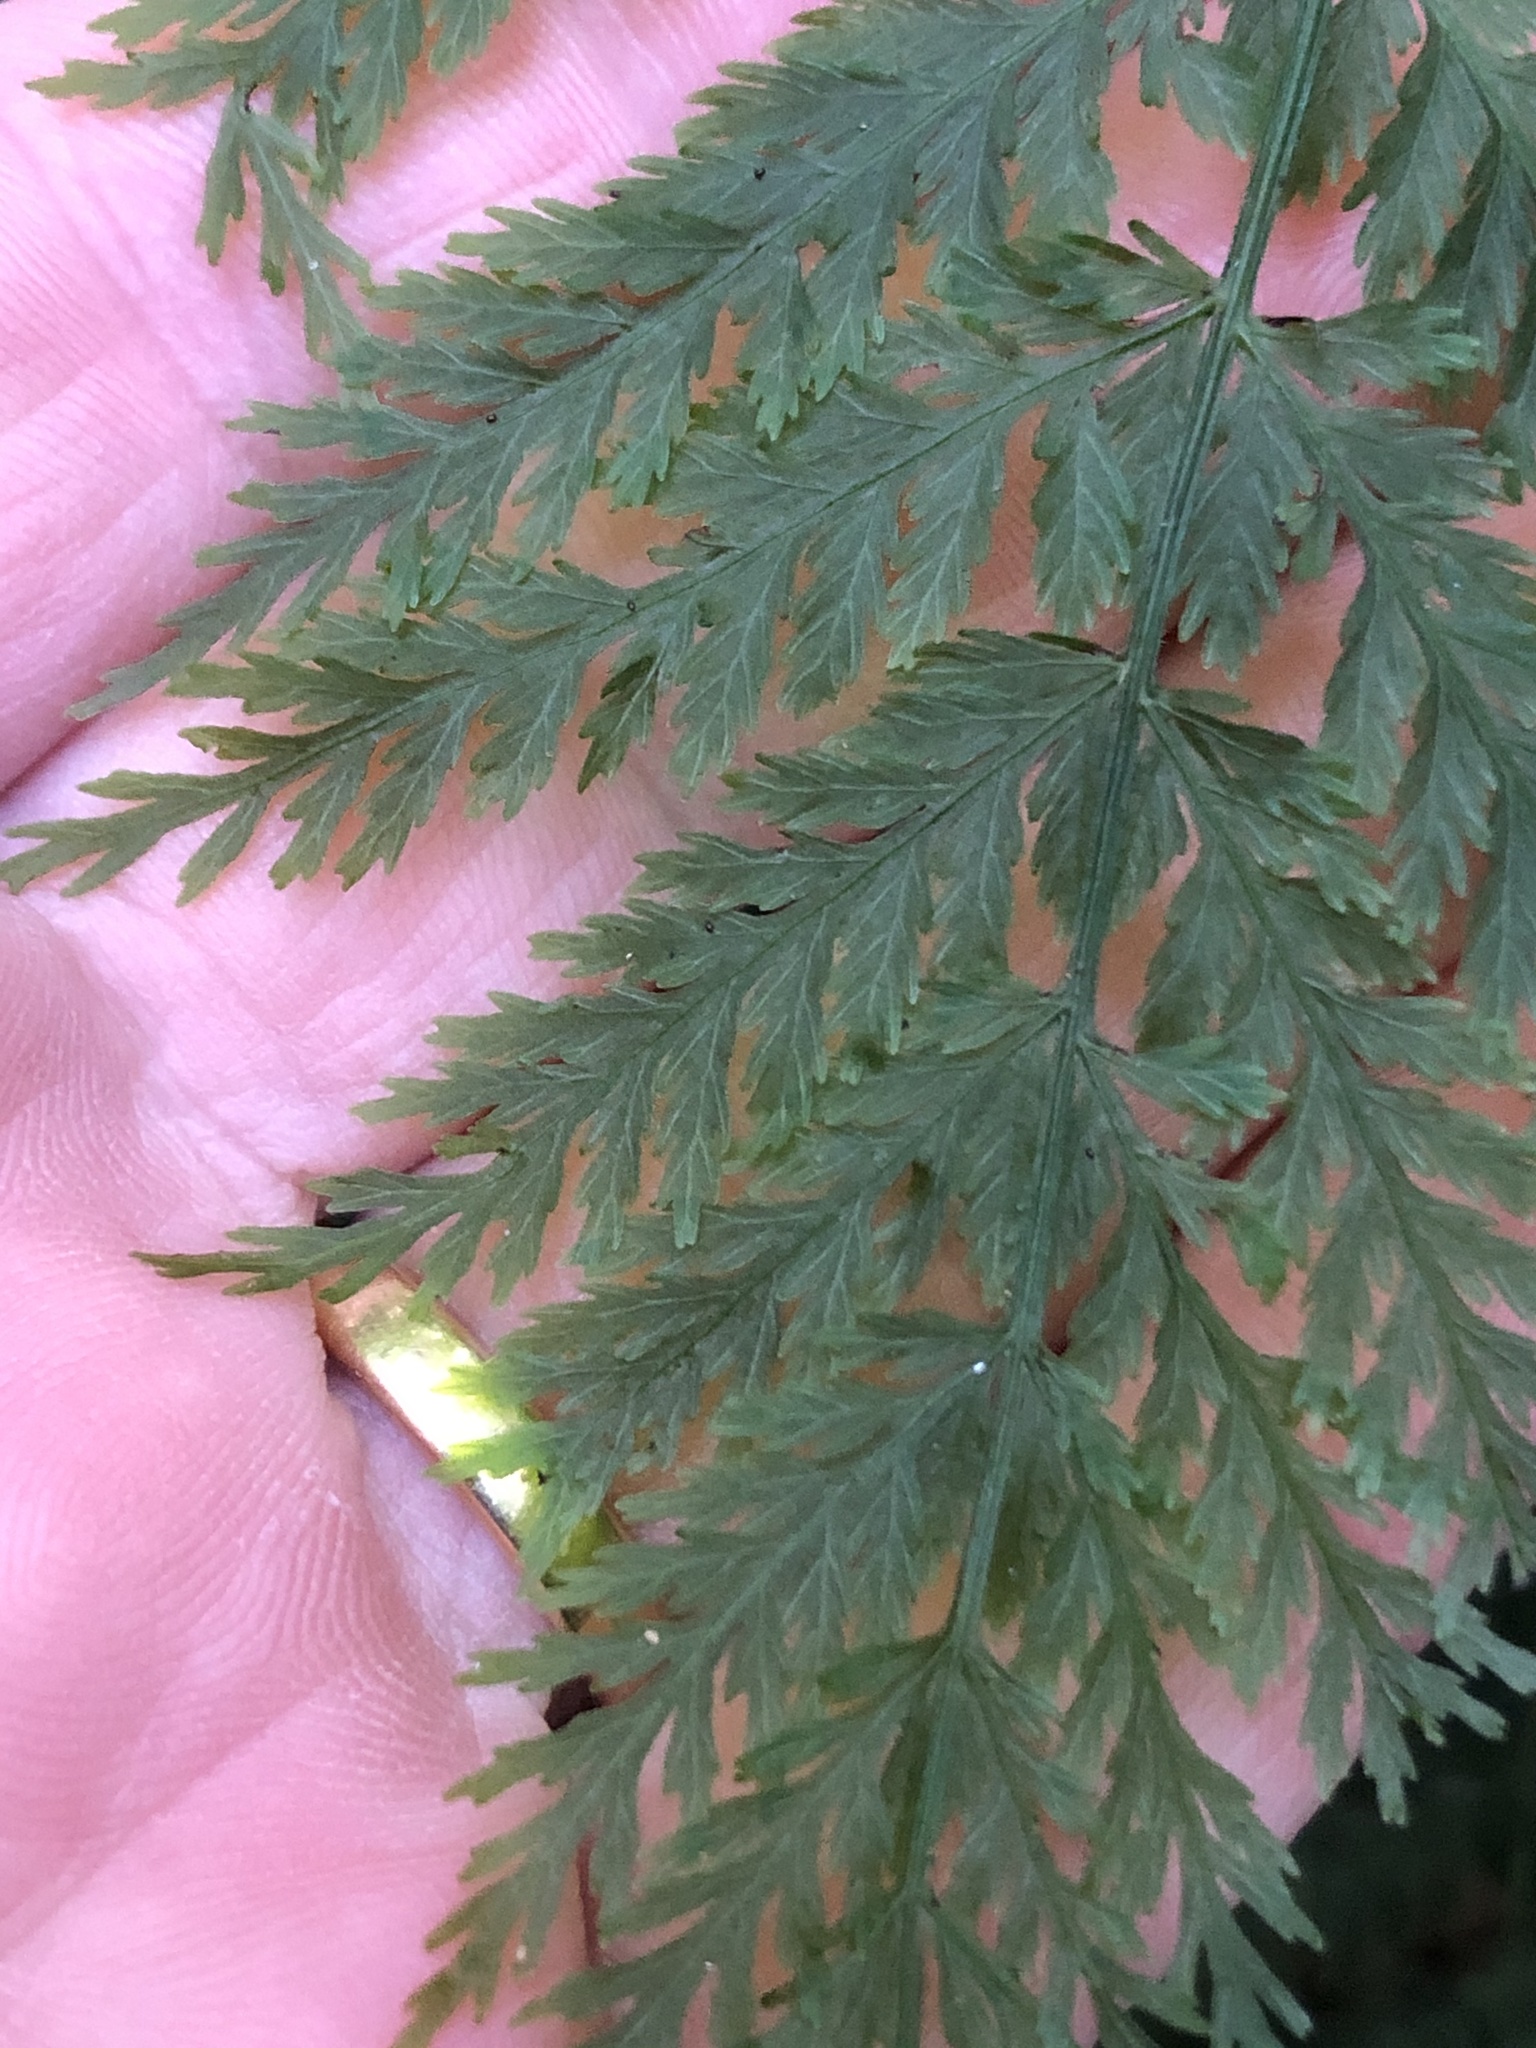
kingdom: Plantae
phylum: Tracheophyta
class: Polypodiopsida
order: Osmundales
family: Osmundaceae
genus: Leptopteris
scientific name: Leptopteris hymenophylloides
